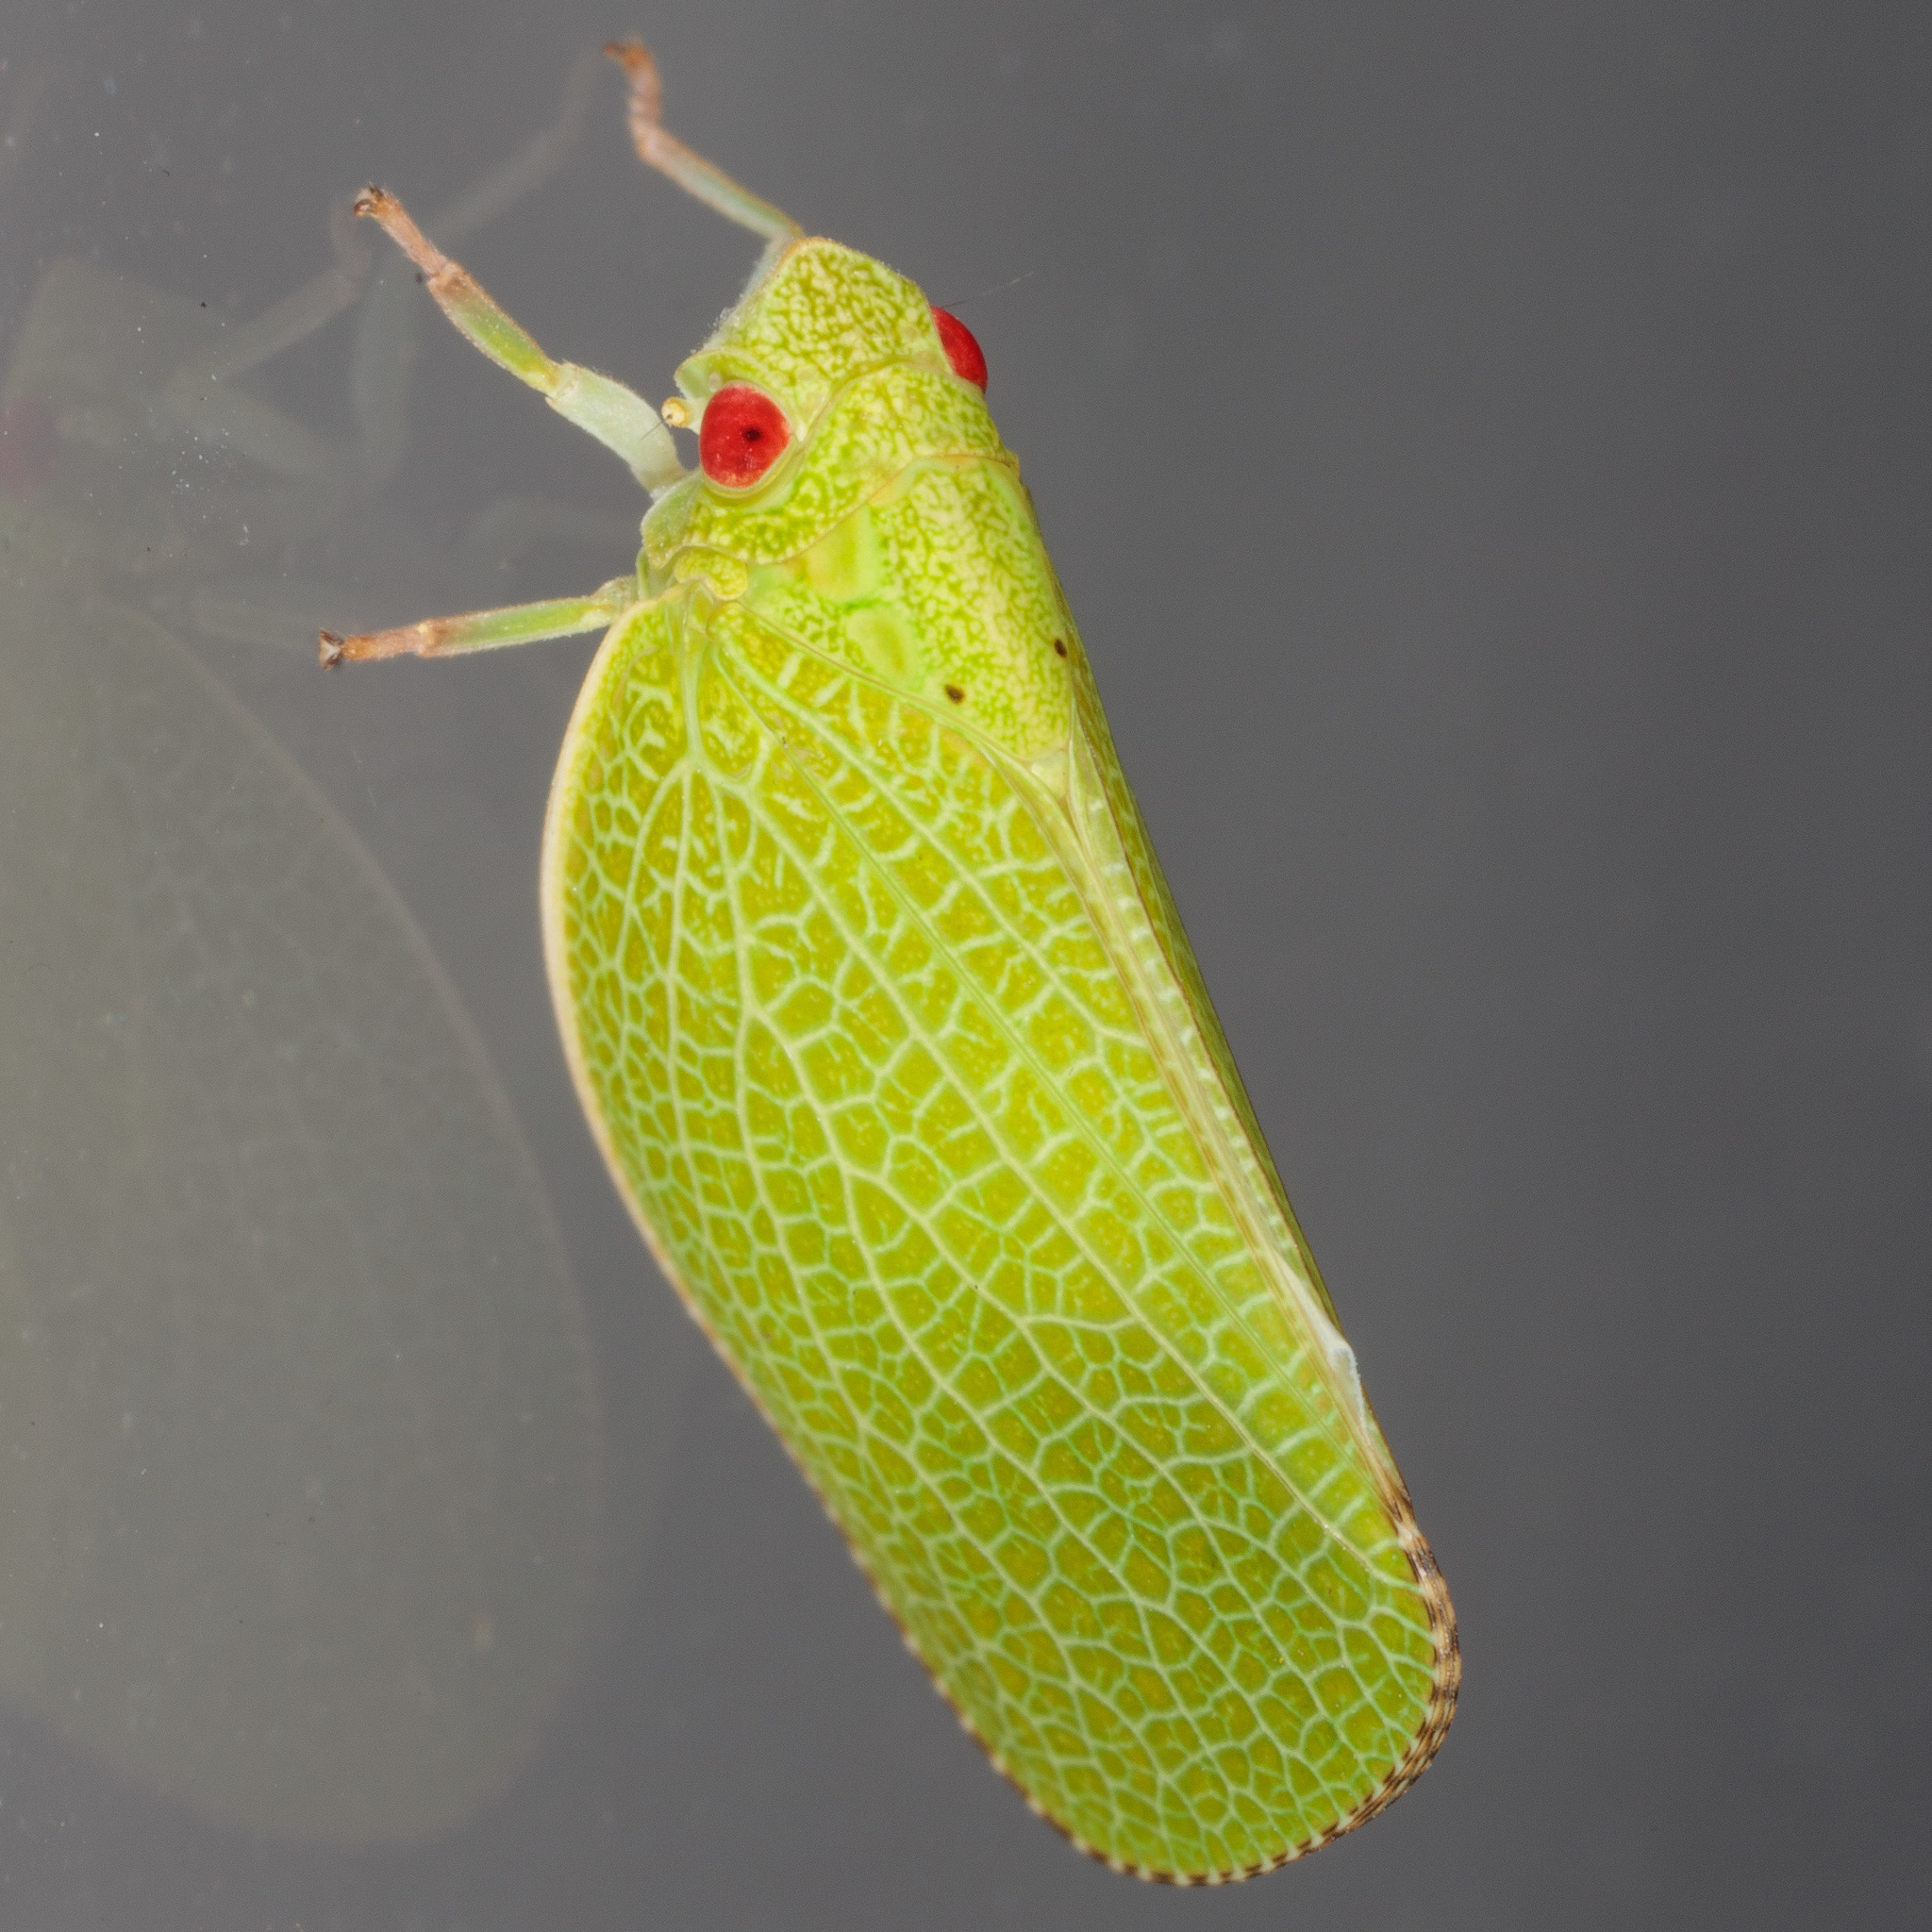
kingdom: Animalia
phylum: Arthropoda
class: Insecta
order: Hemiptera
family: Acanaloniidae
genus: Acanalonia
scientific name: Acanalonia conica
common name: Green cone-headed planthopper
